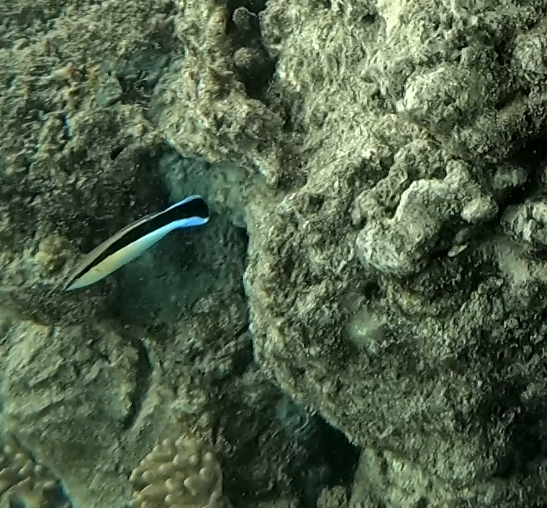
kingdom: Animalia
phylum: Chordata
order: Perciformes
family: Labridae
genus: Labroides
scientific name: Labroides dimidiatus
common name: Blue diesel wrasse
